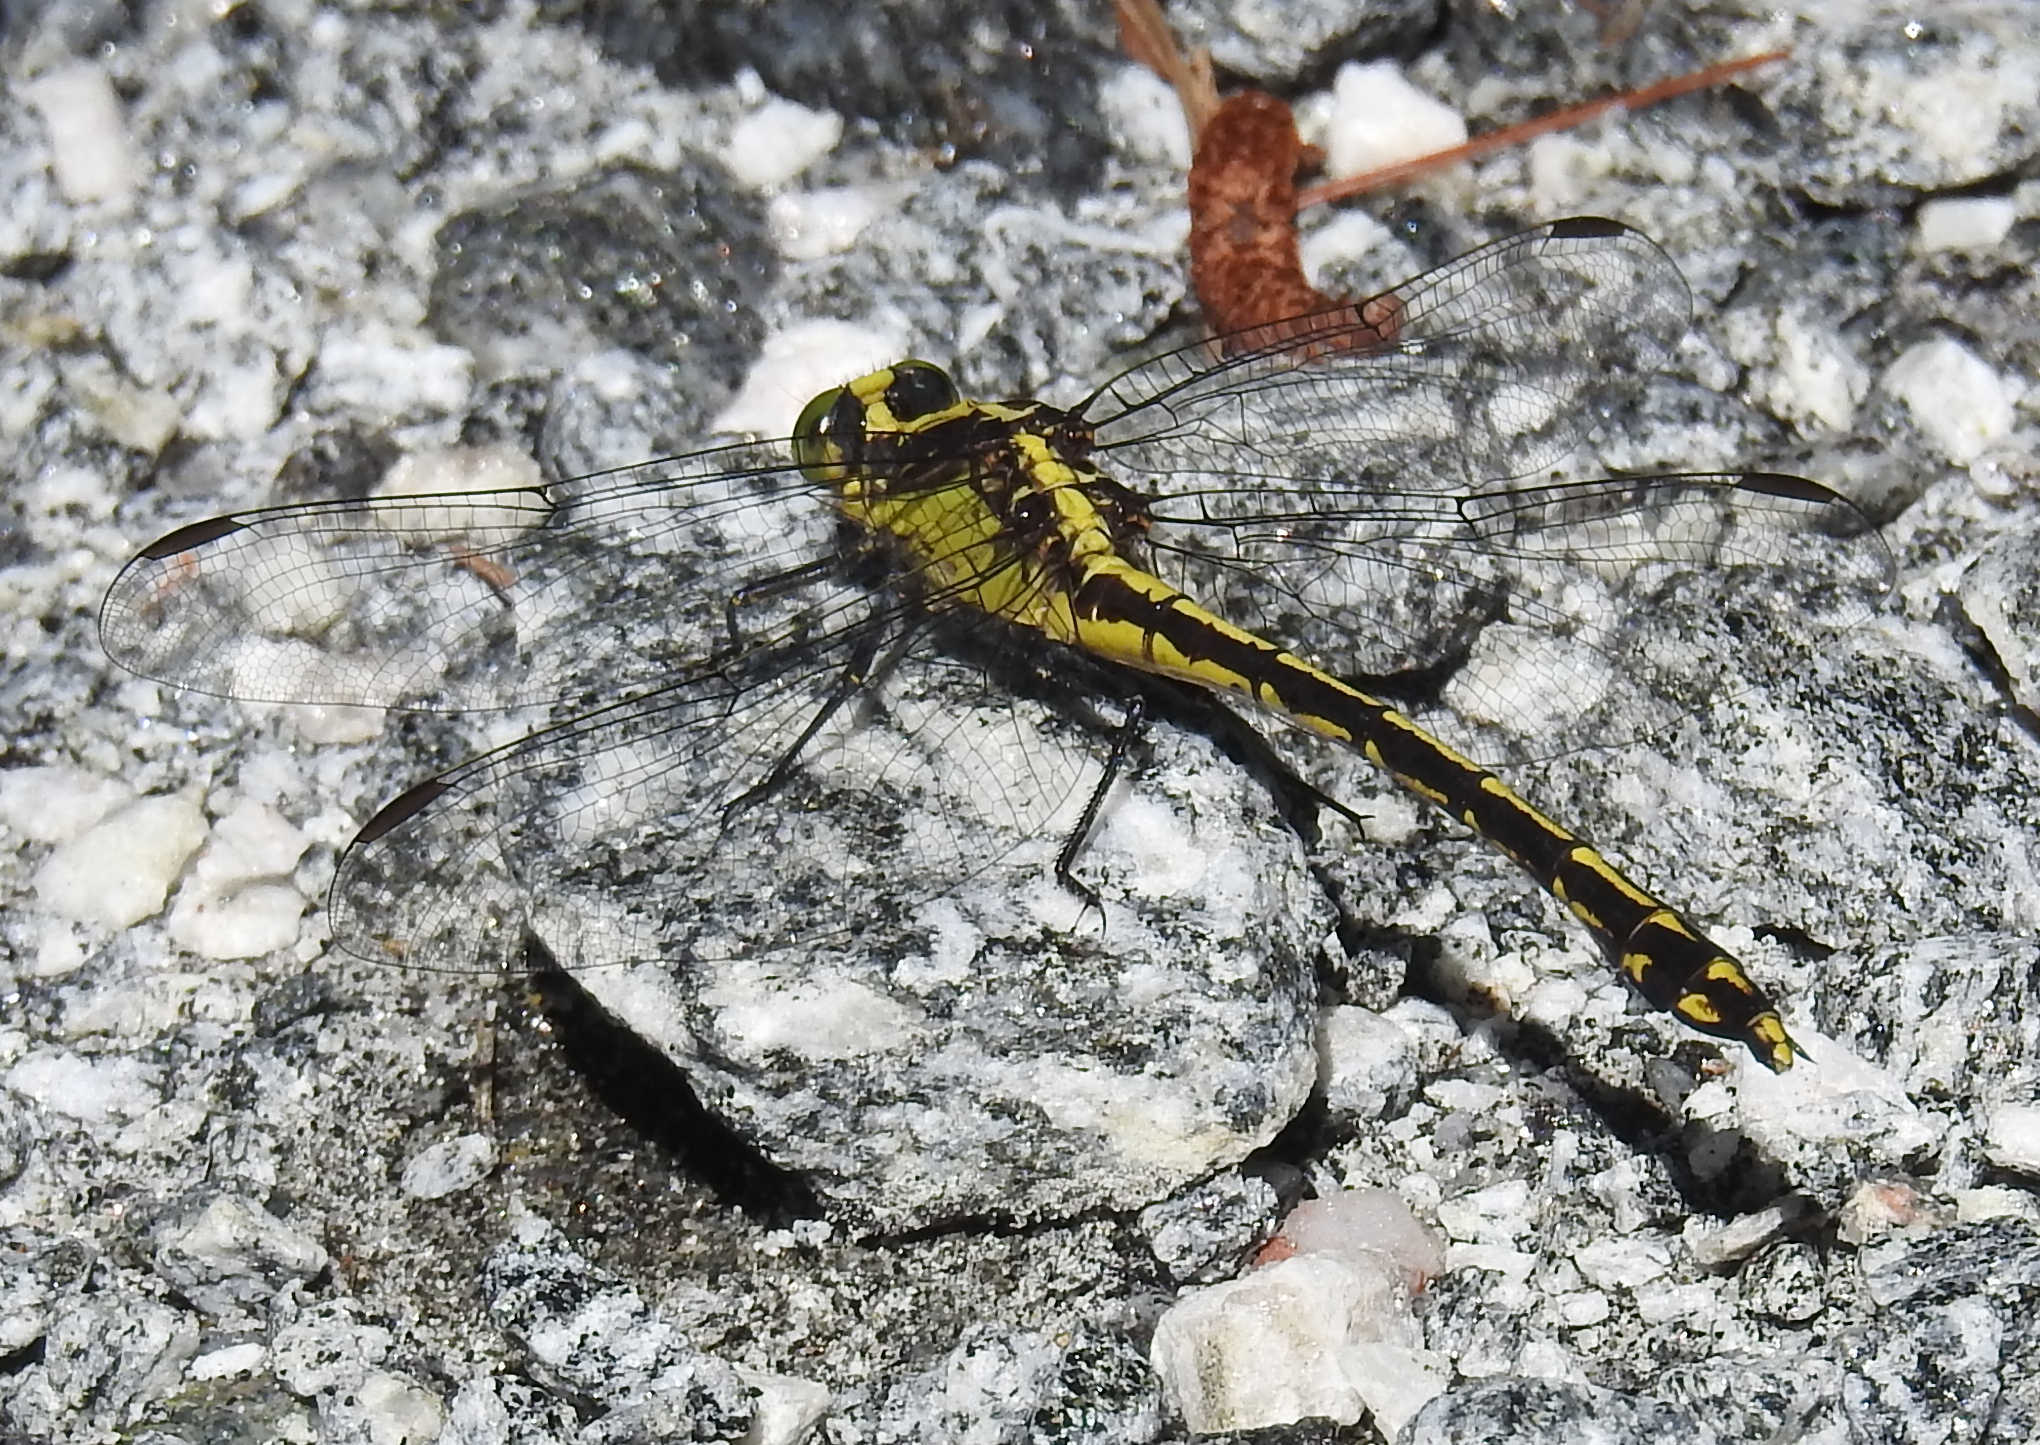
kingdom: Animalia
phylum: Arthropoda
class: Insecta
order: Odonata
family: Gomphidae
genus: Dromogomphus
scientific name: Dromogomphus spinosus
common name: Black-shouldered spinyleg
